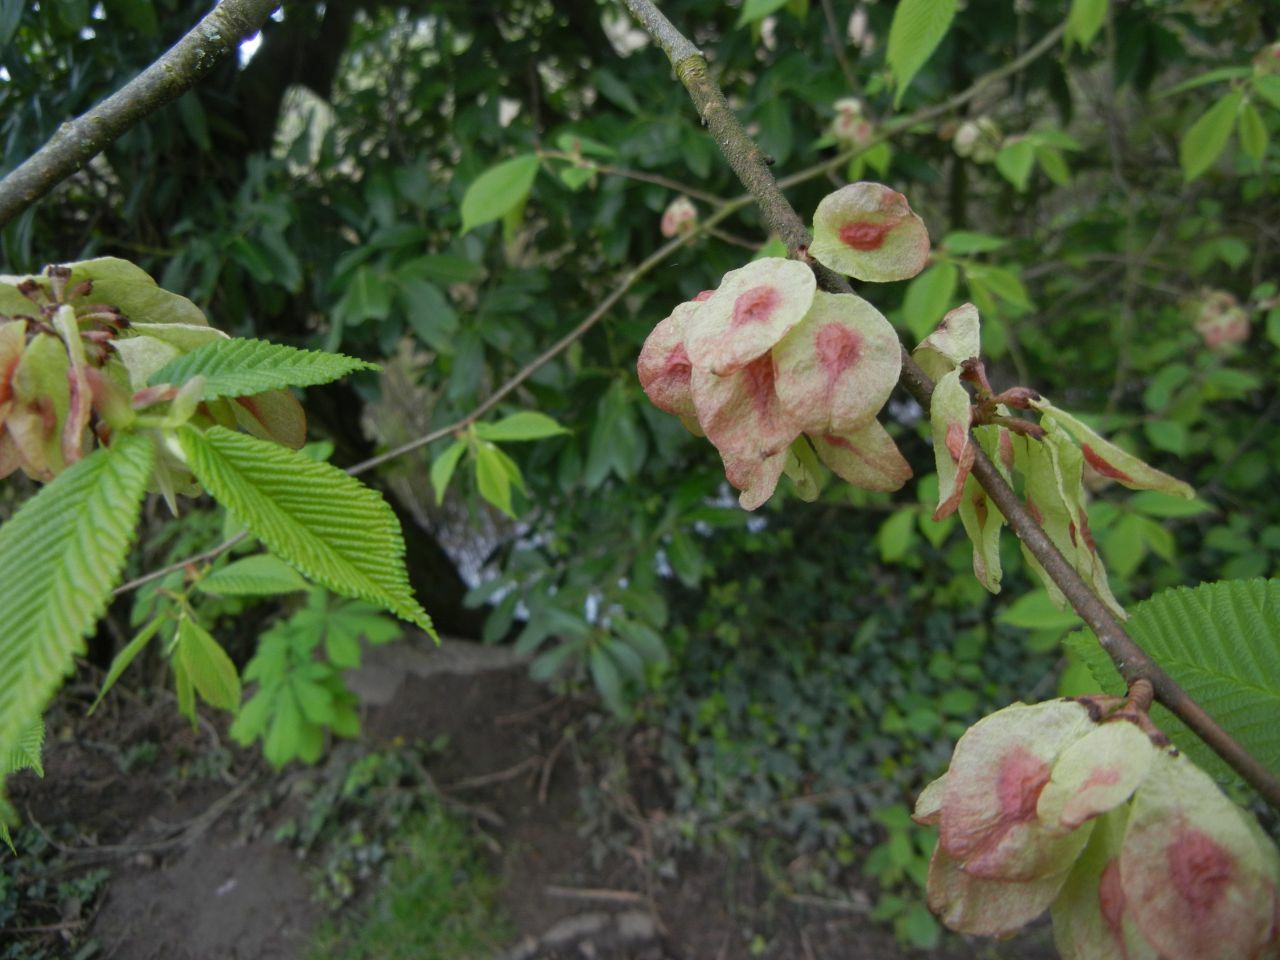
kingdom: Plantae
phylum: Tracheophyta
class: Magnoliopsida
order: Rosales
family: Ulmaceae
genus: Ulmus
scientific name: Ulmus glabra
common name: Wych elm
